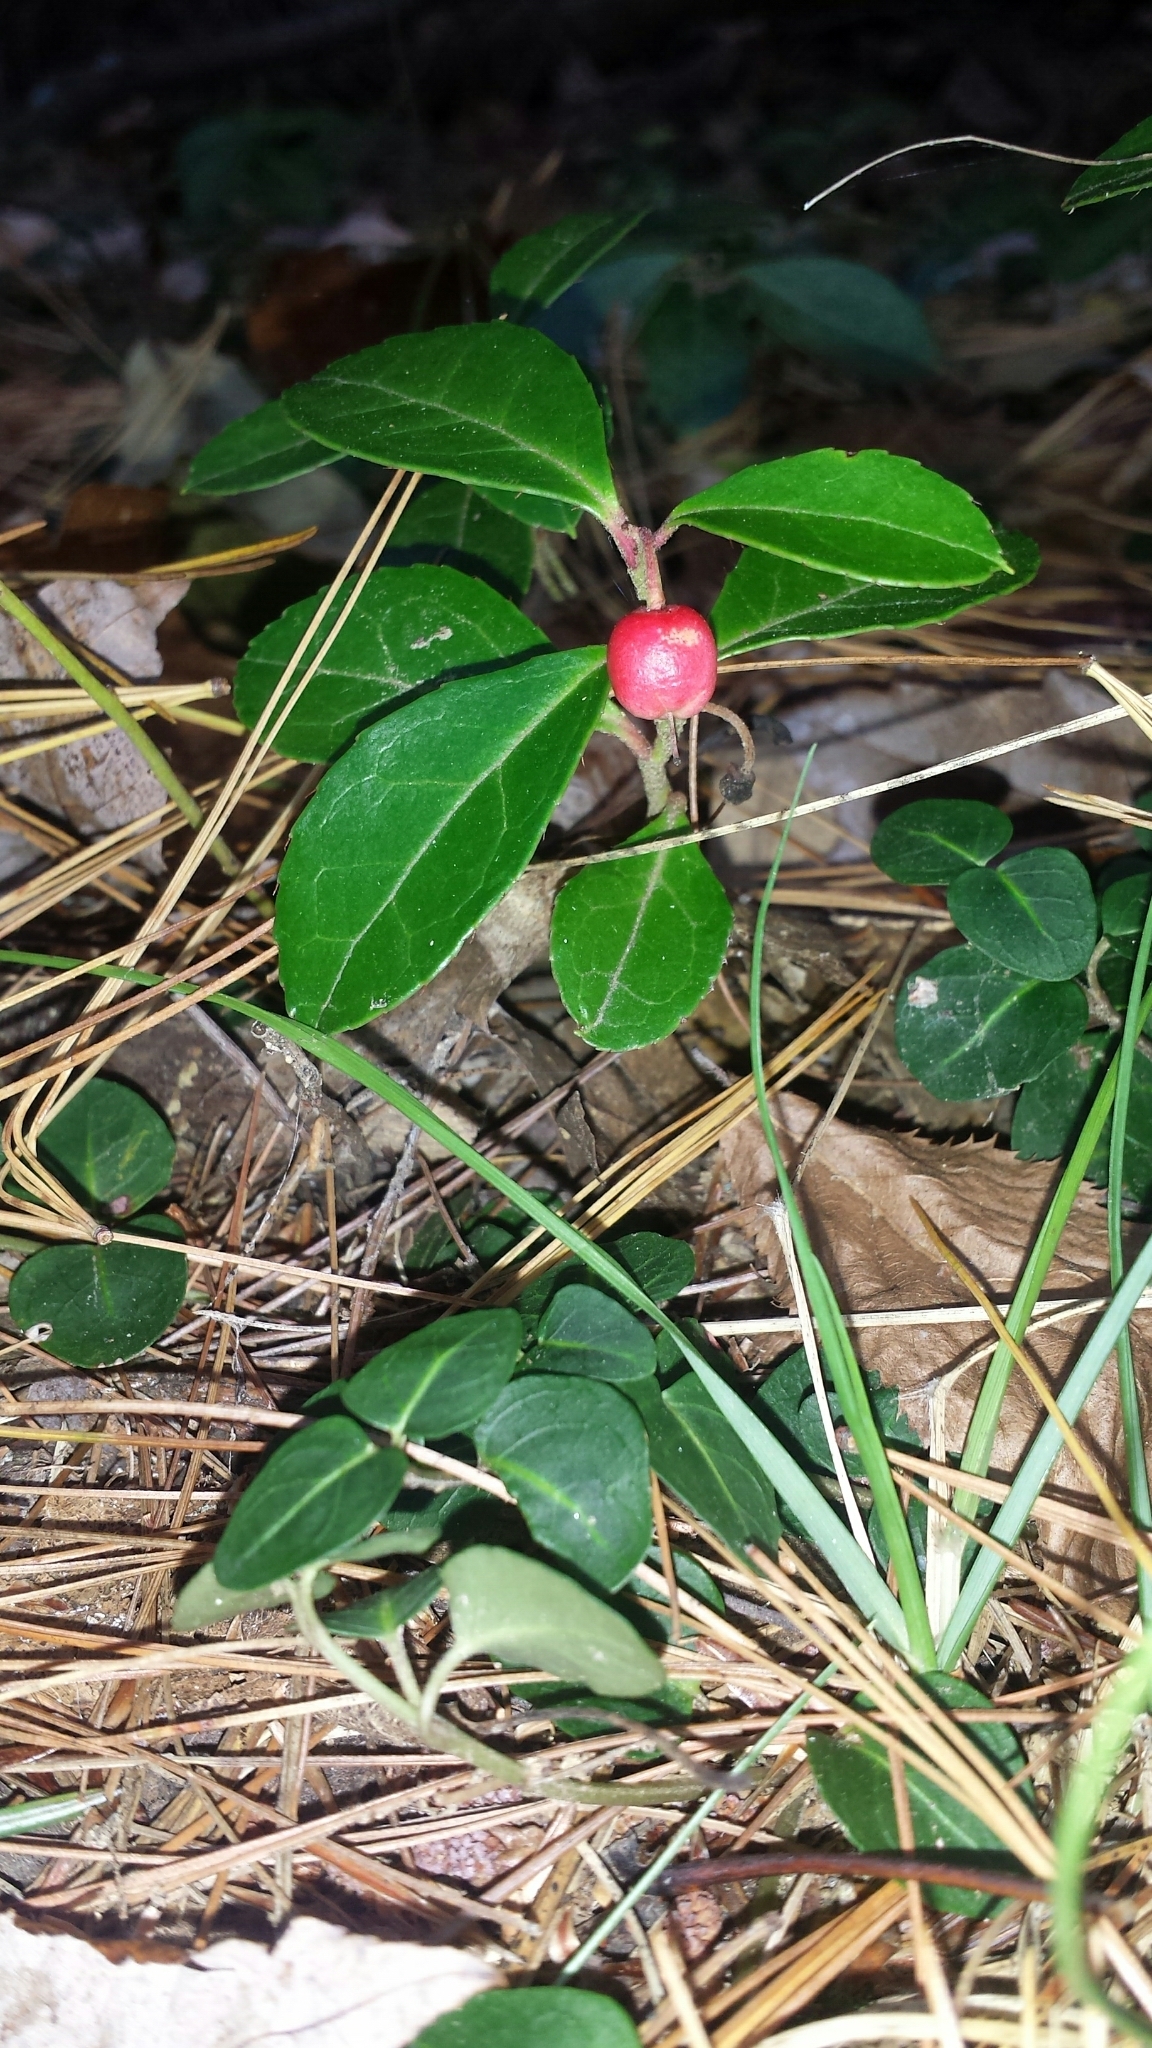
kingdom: Plantae
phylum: Tracheophyta
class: Magnoliopsida
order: Ericales
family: Ericaceae
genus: Gaultheria
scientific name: Gaultheria procumbens
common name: Checkerberry
